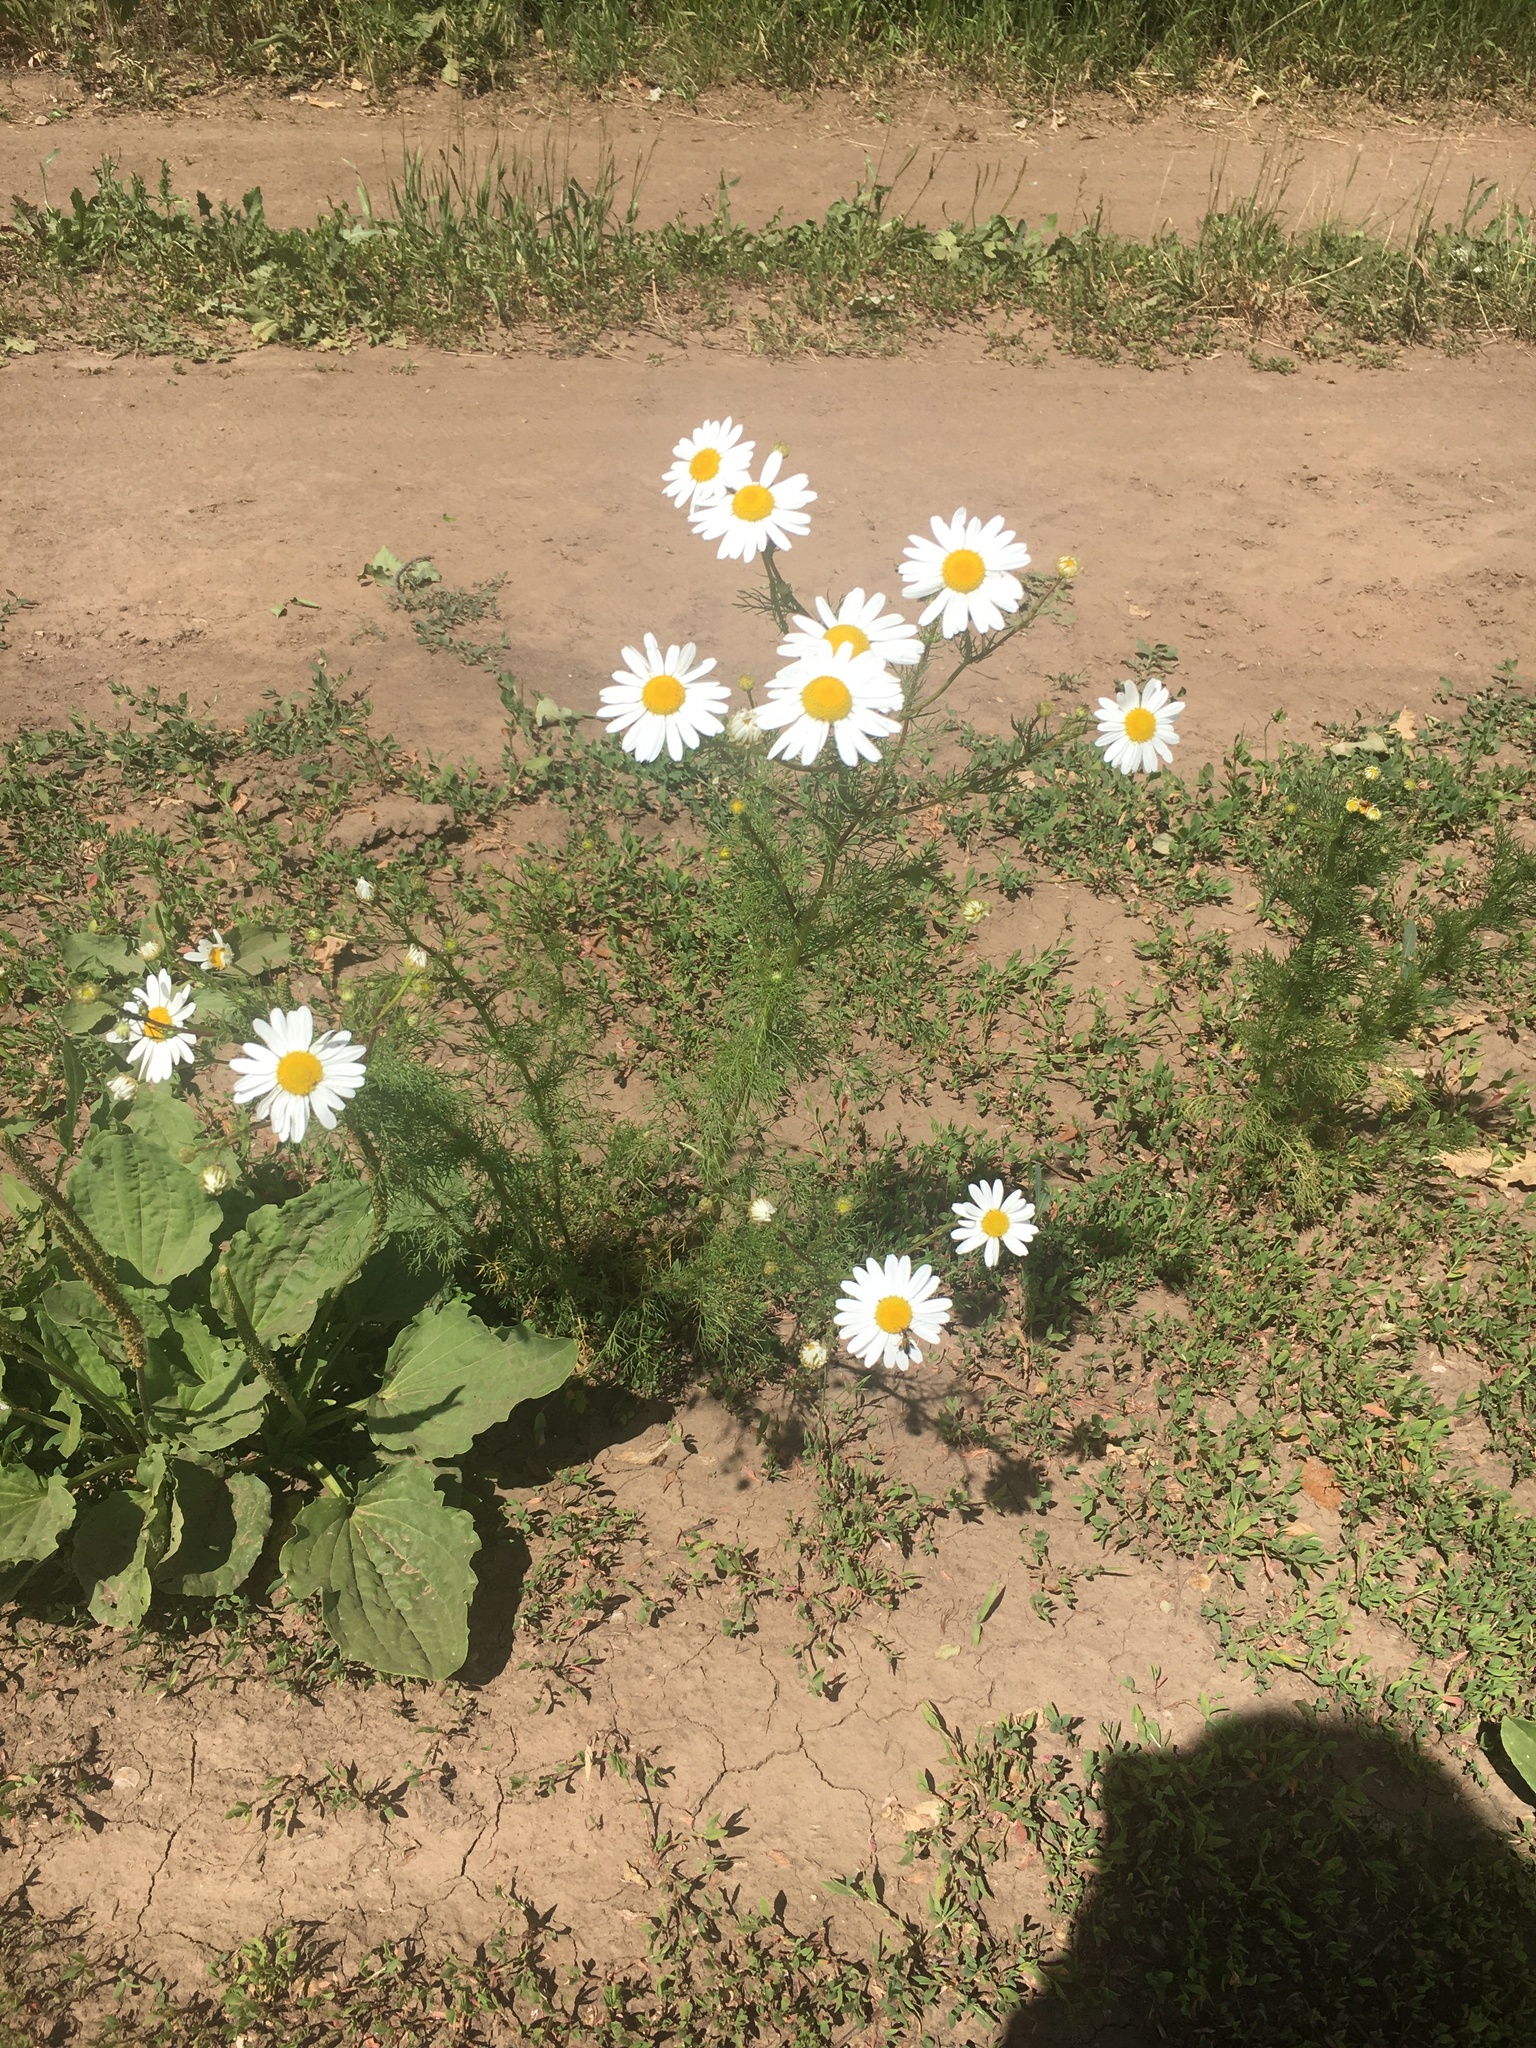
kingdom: Plantae
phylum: Tracheophyta
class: Magnoliopsida
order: Asterales
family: Asteraceae
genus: Tripleurospermum
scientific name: Tripleurospermum inodorum
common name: Scentless mayweed
